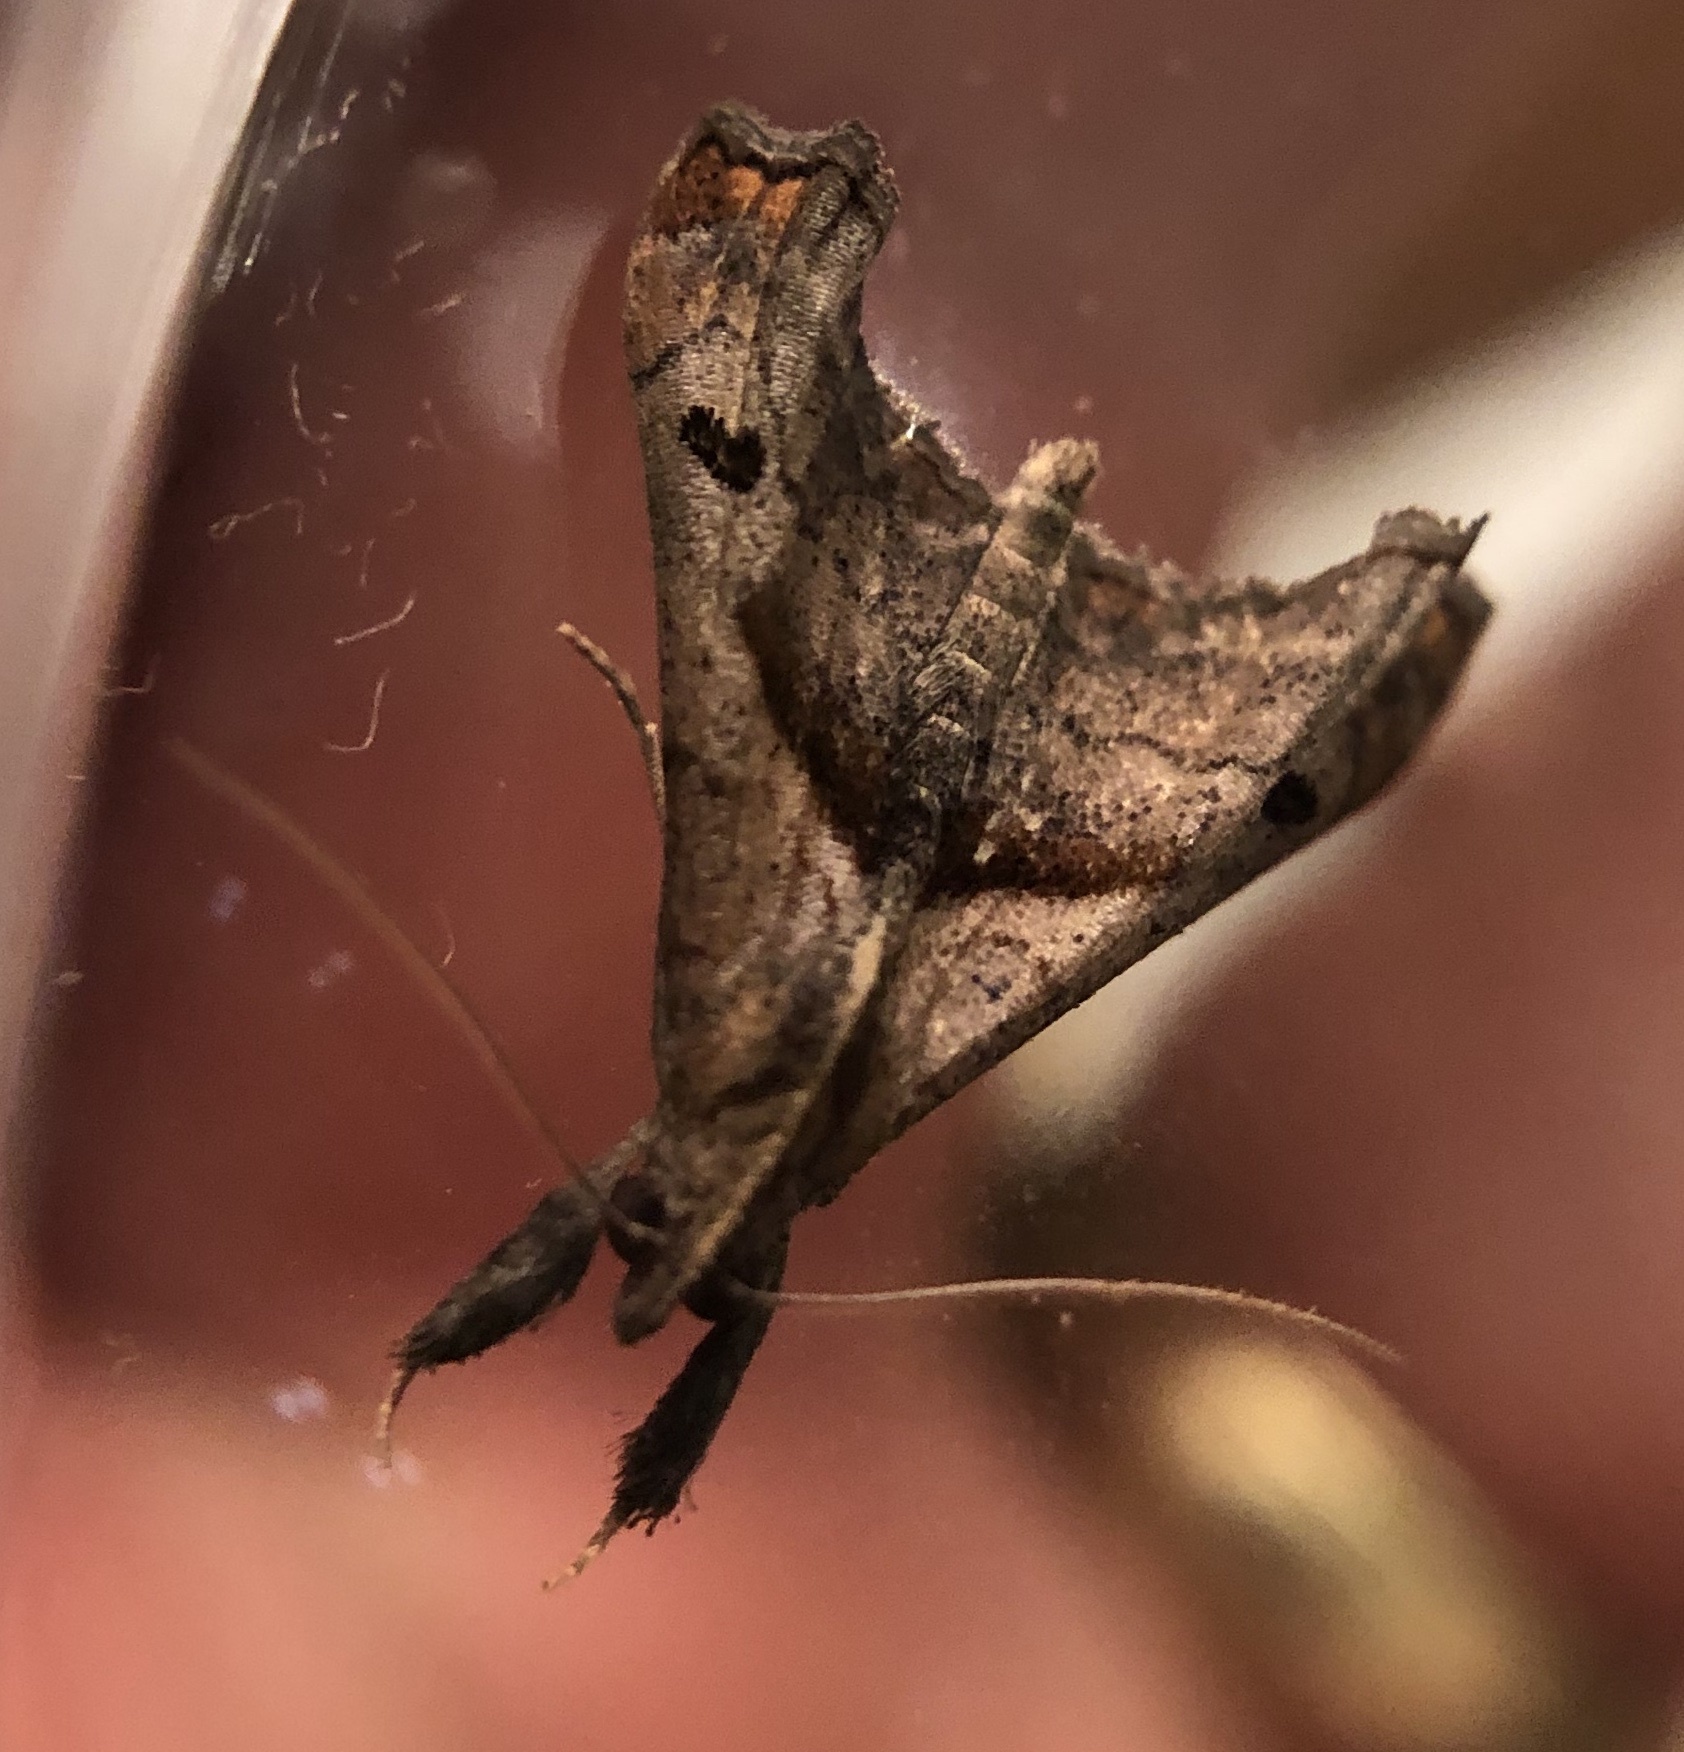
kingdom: Animalia
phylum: Arthropoda
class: Insecta
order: Lepidoptera
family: Erebidae
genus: Palthis
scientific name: Palthis angulalis
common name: Dark-spotted palthis moth
